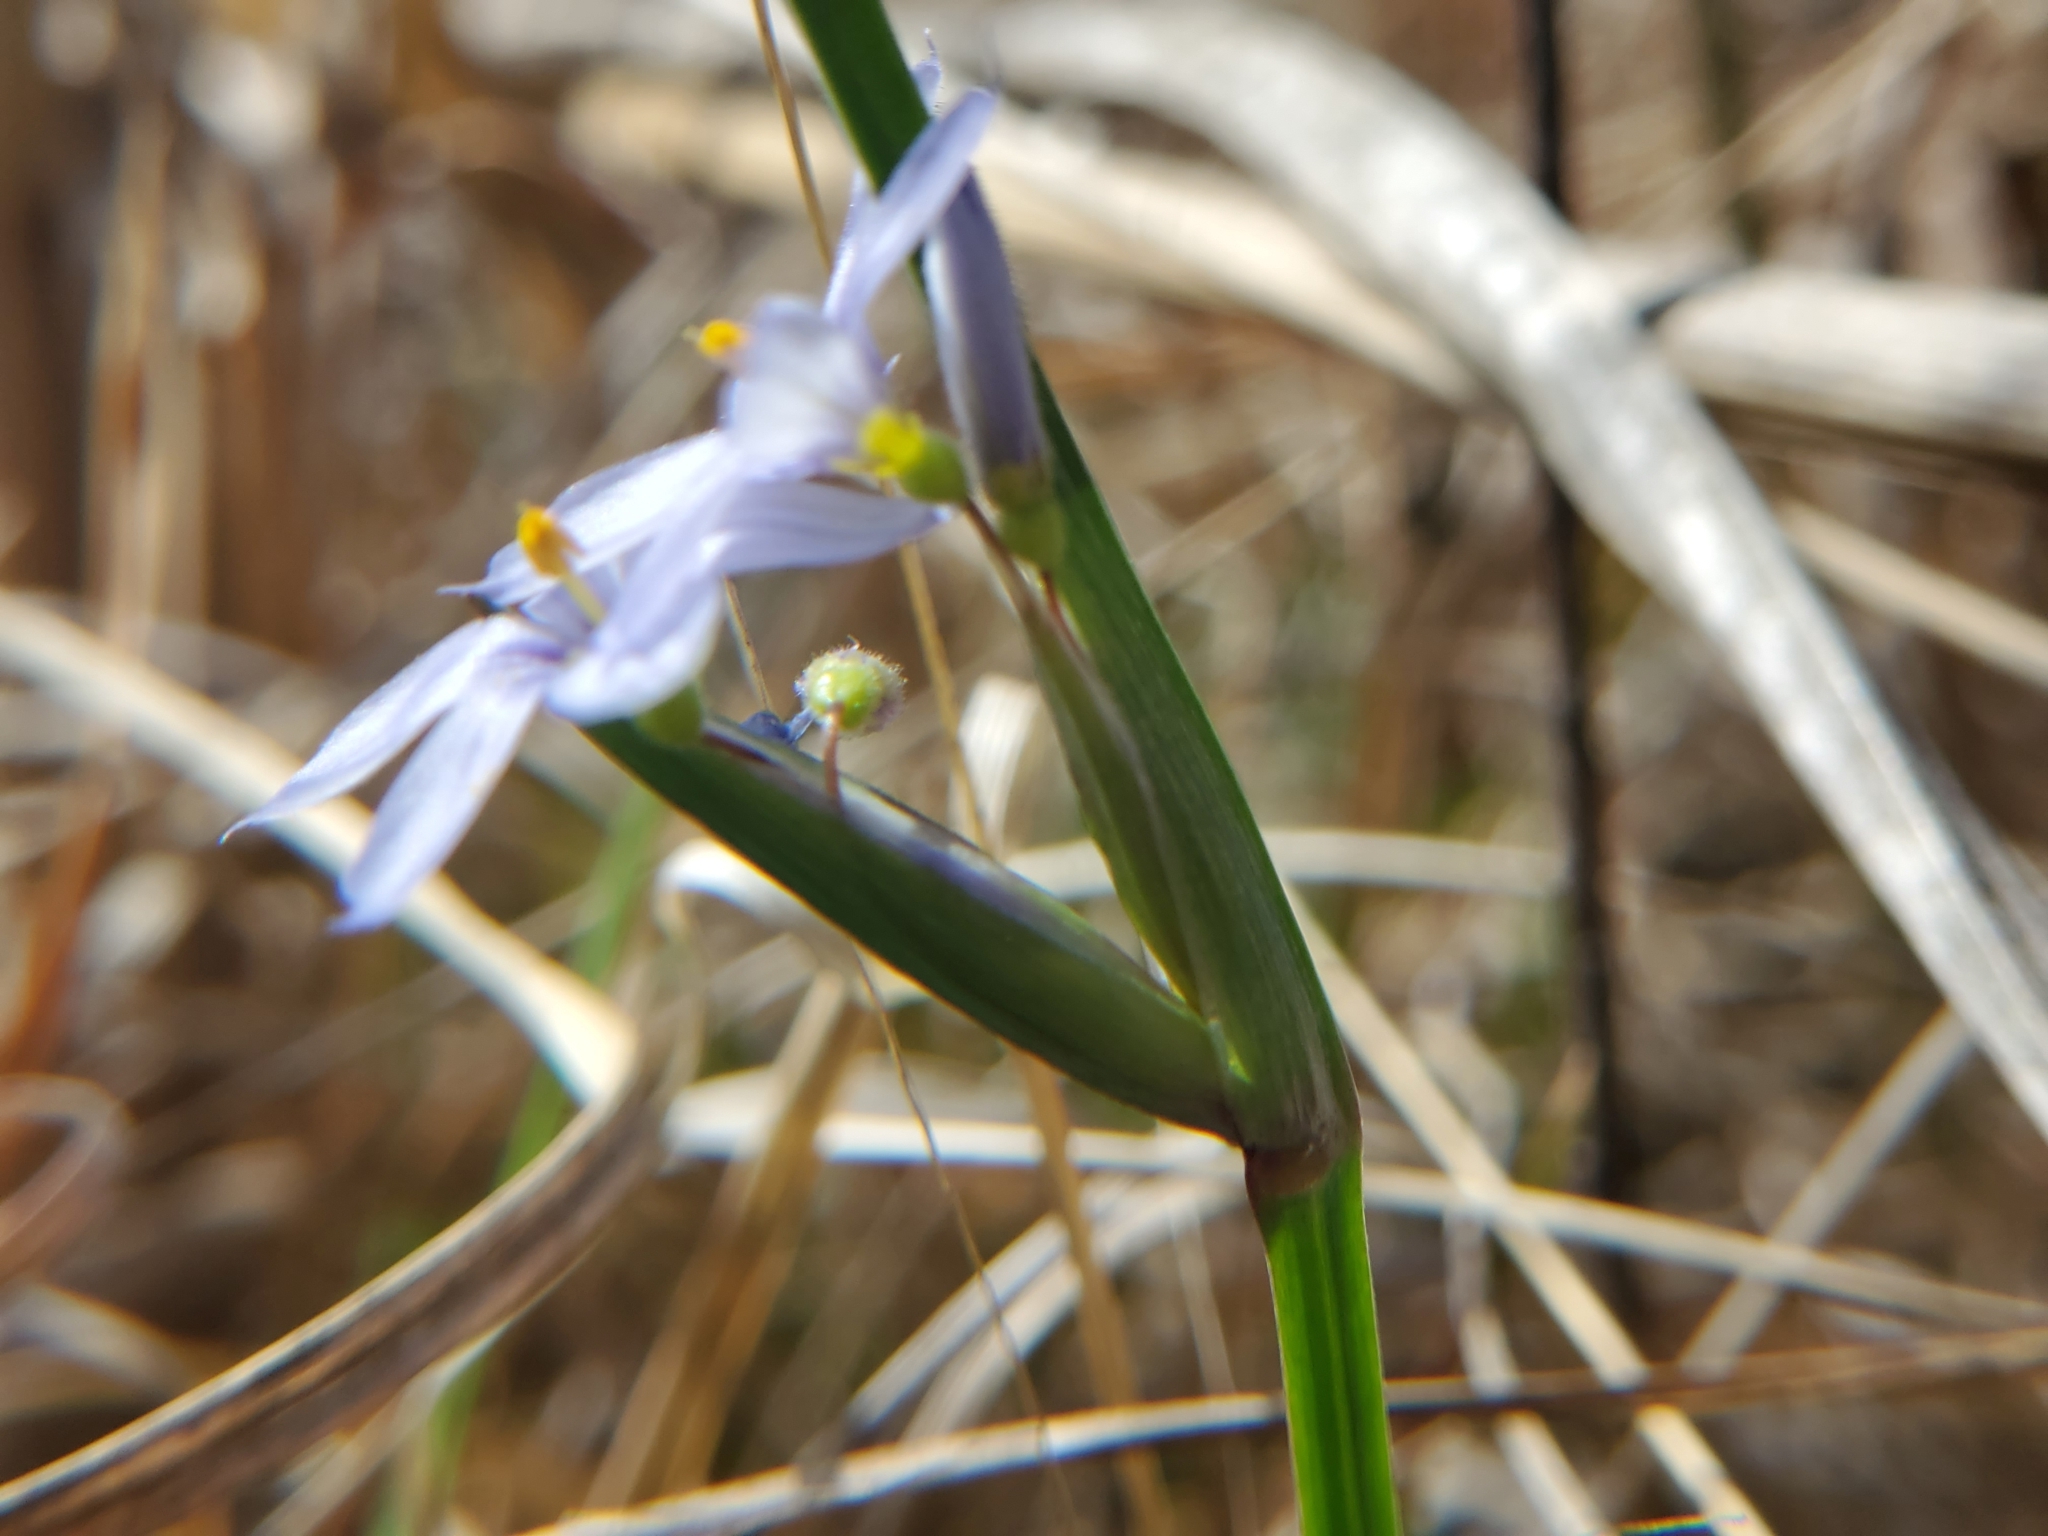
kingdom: Plantae
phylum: Tracheophyta
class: Liliopsida
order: Asparagales
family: Iridaceae
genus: Sisyrinchium
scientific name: Sisyrinchium albidum
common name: Pale blue-eyed-grass
